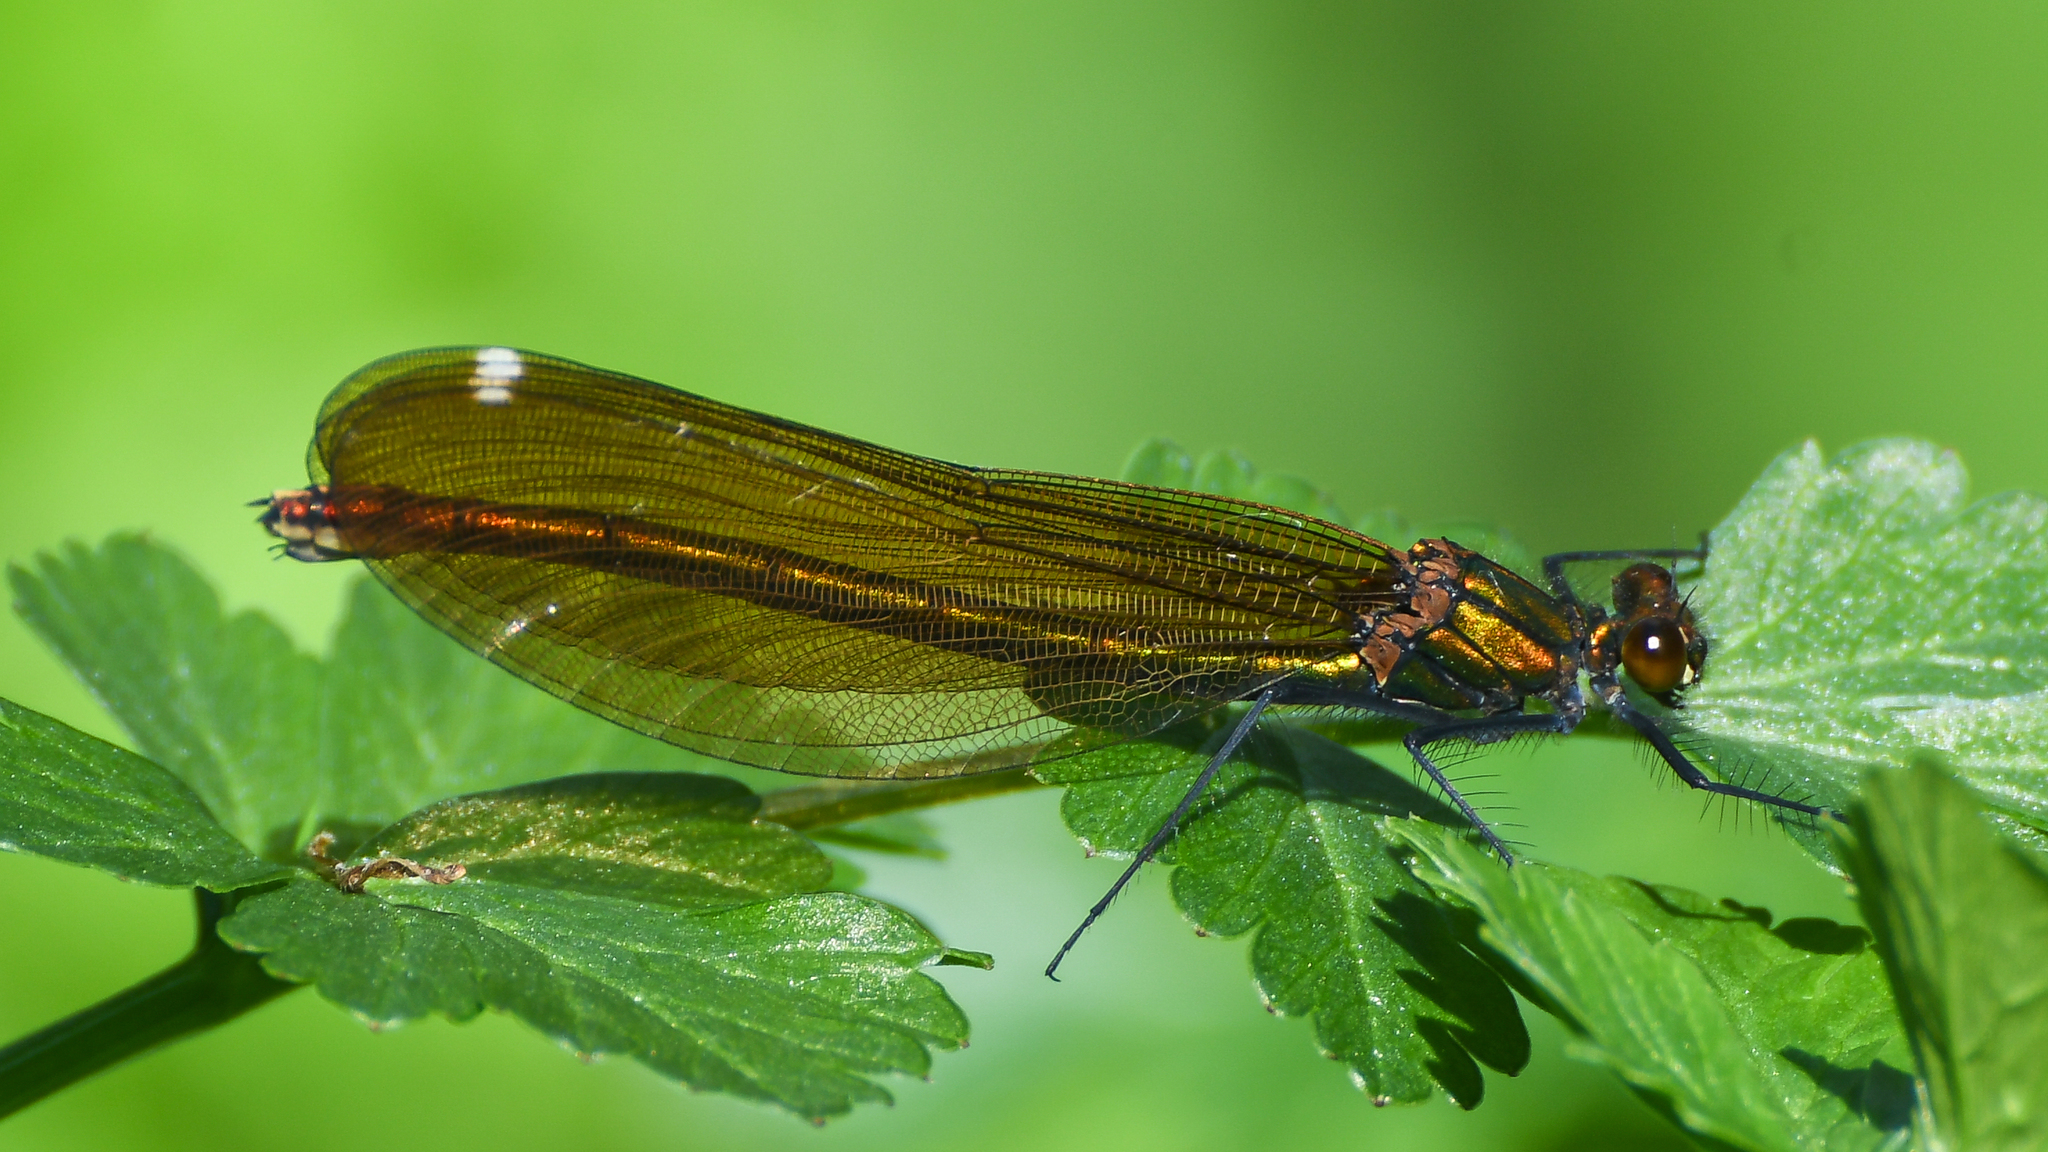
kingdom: Animalia
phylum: Arthropoda
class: Insecta
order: Odonata
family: Calopterygidae
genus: Calopteryx
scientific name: Calopteryx virgo
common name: Beautiful demoiselle
